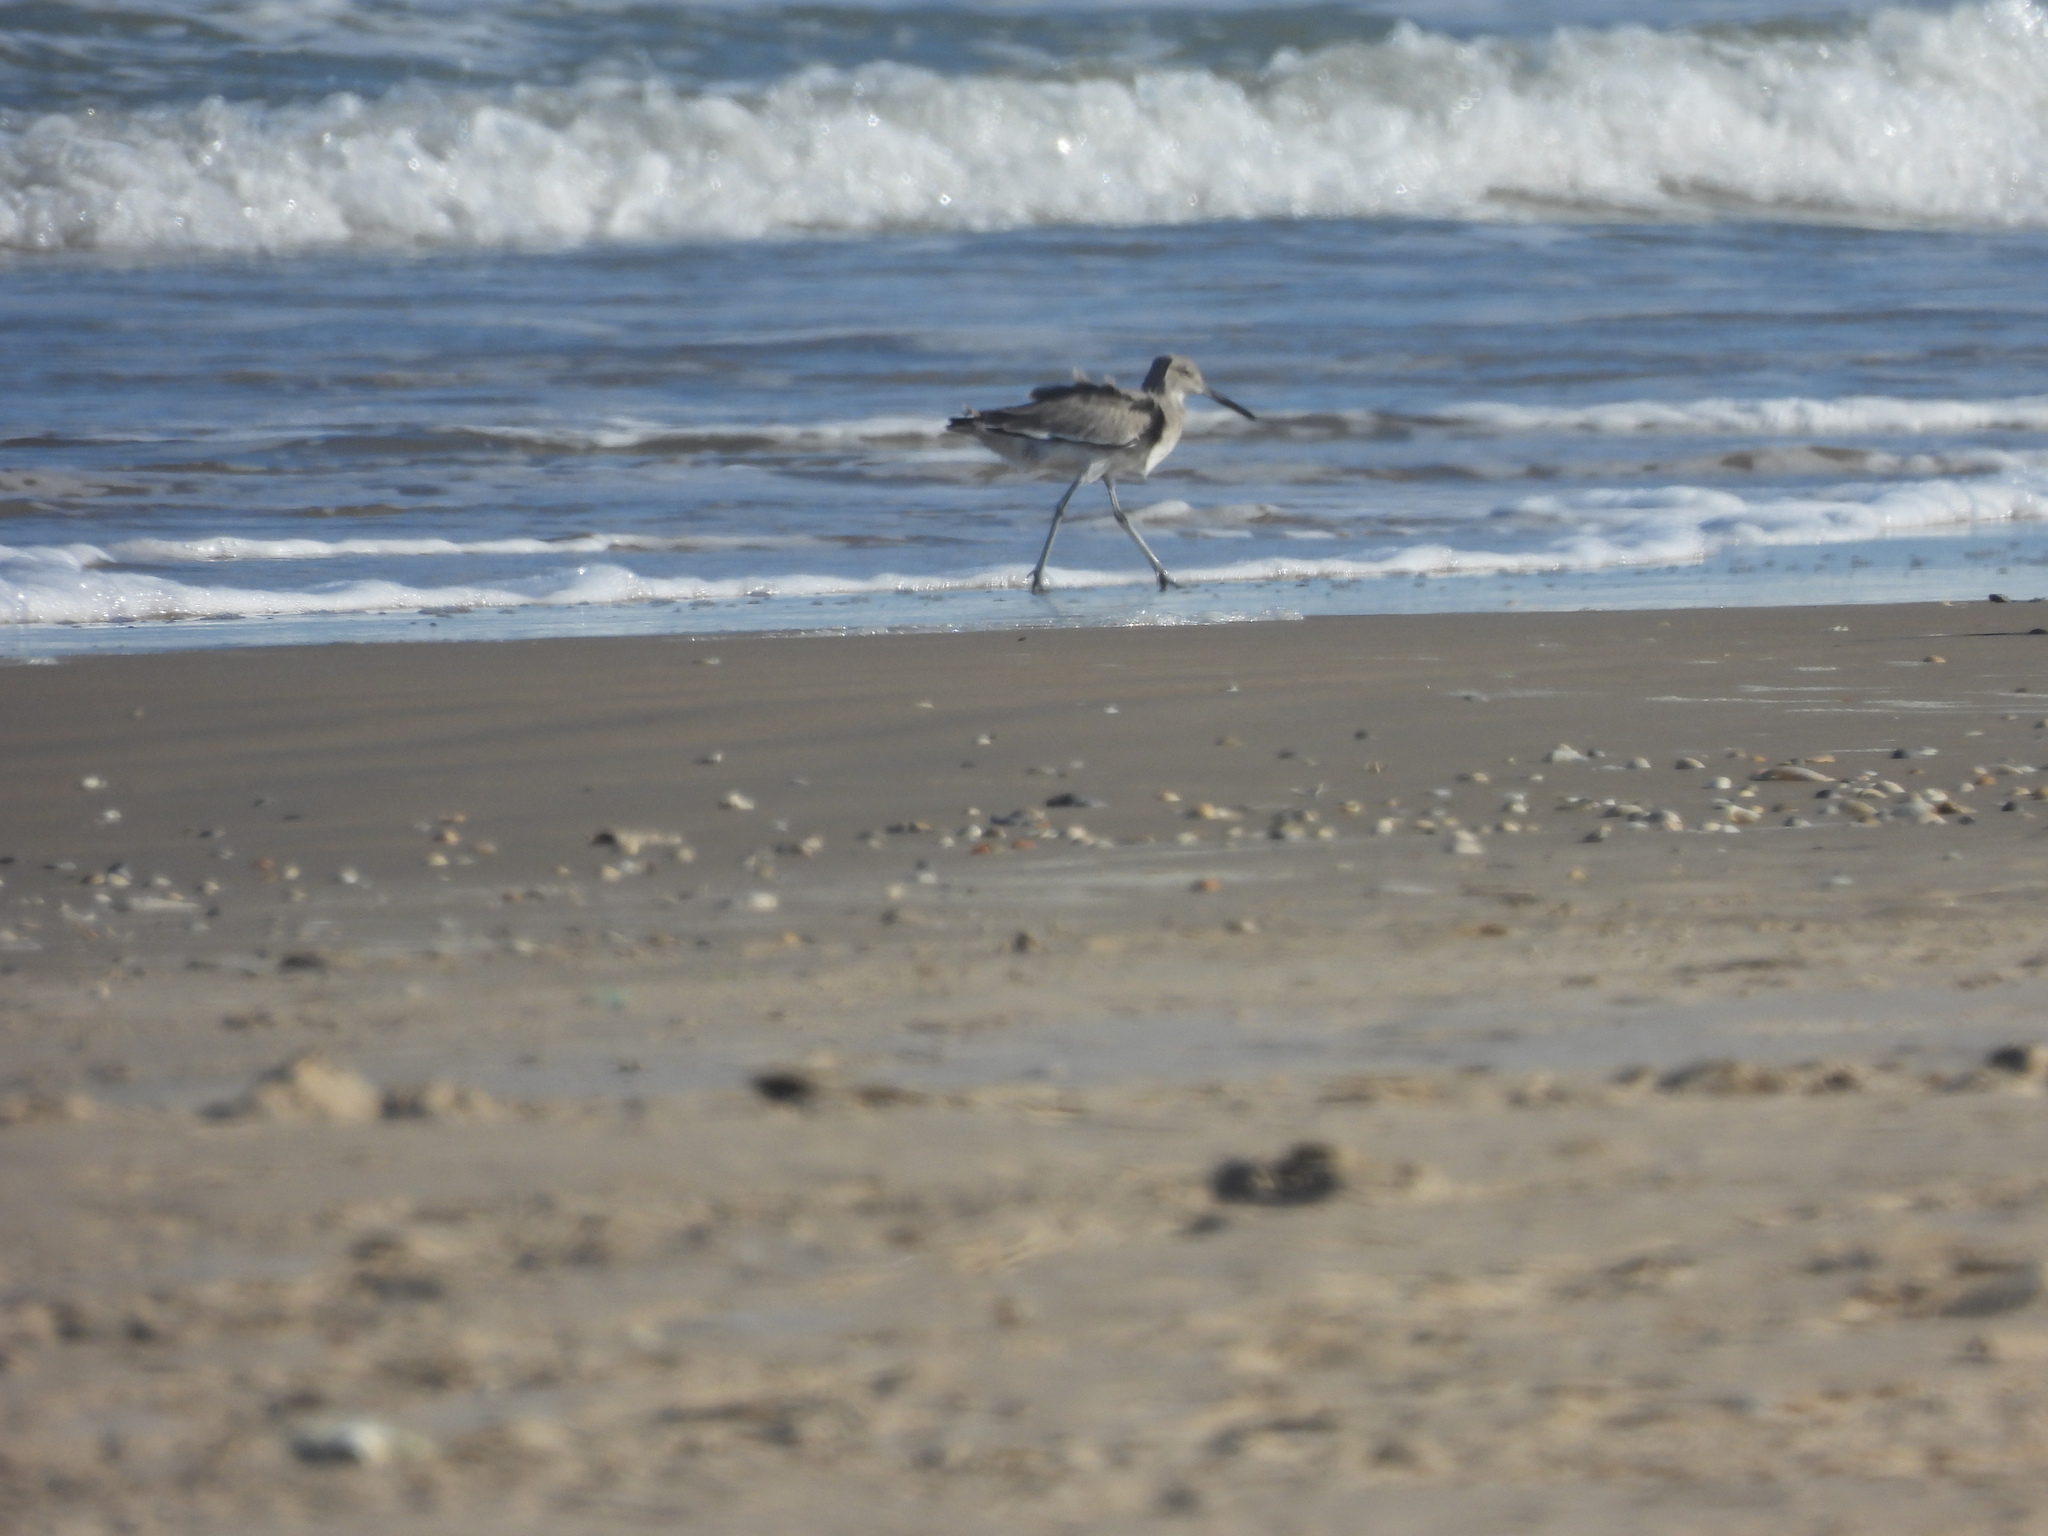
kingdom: Animalia
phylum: Chordata
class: Aves
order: Charadriiformes
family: Scolopacidae
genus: Tringa
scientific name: Tringa semipalmata
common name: Willet
